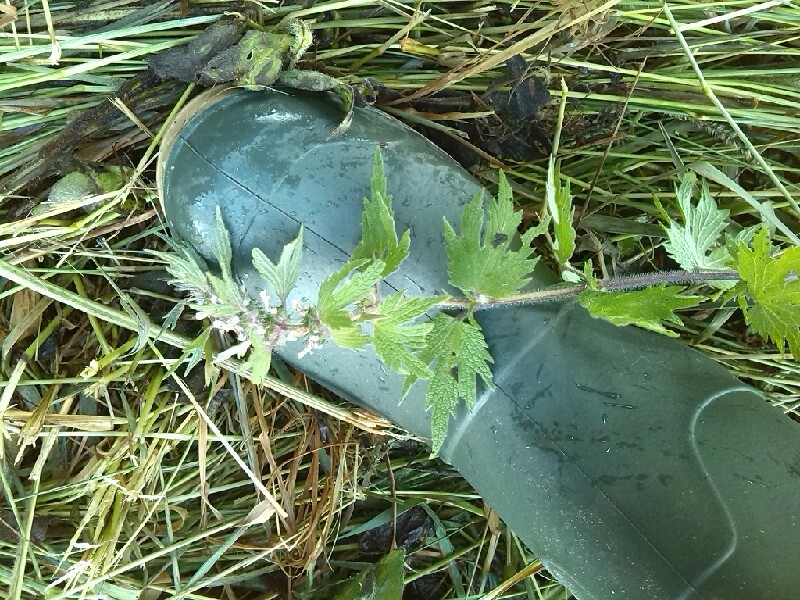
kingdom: Plantae
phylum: Tracheophyta
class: Magnoliopsida
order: Lamiales
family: Lamiaceae
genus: Leonurus
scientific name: Leonurus quinquelobatus
